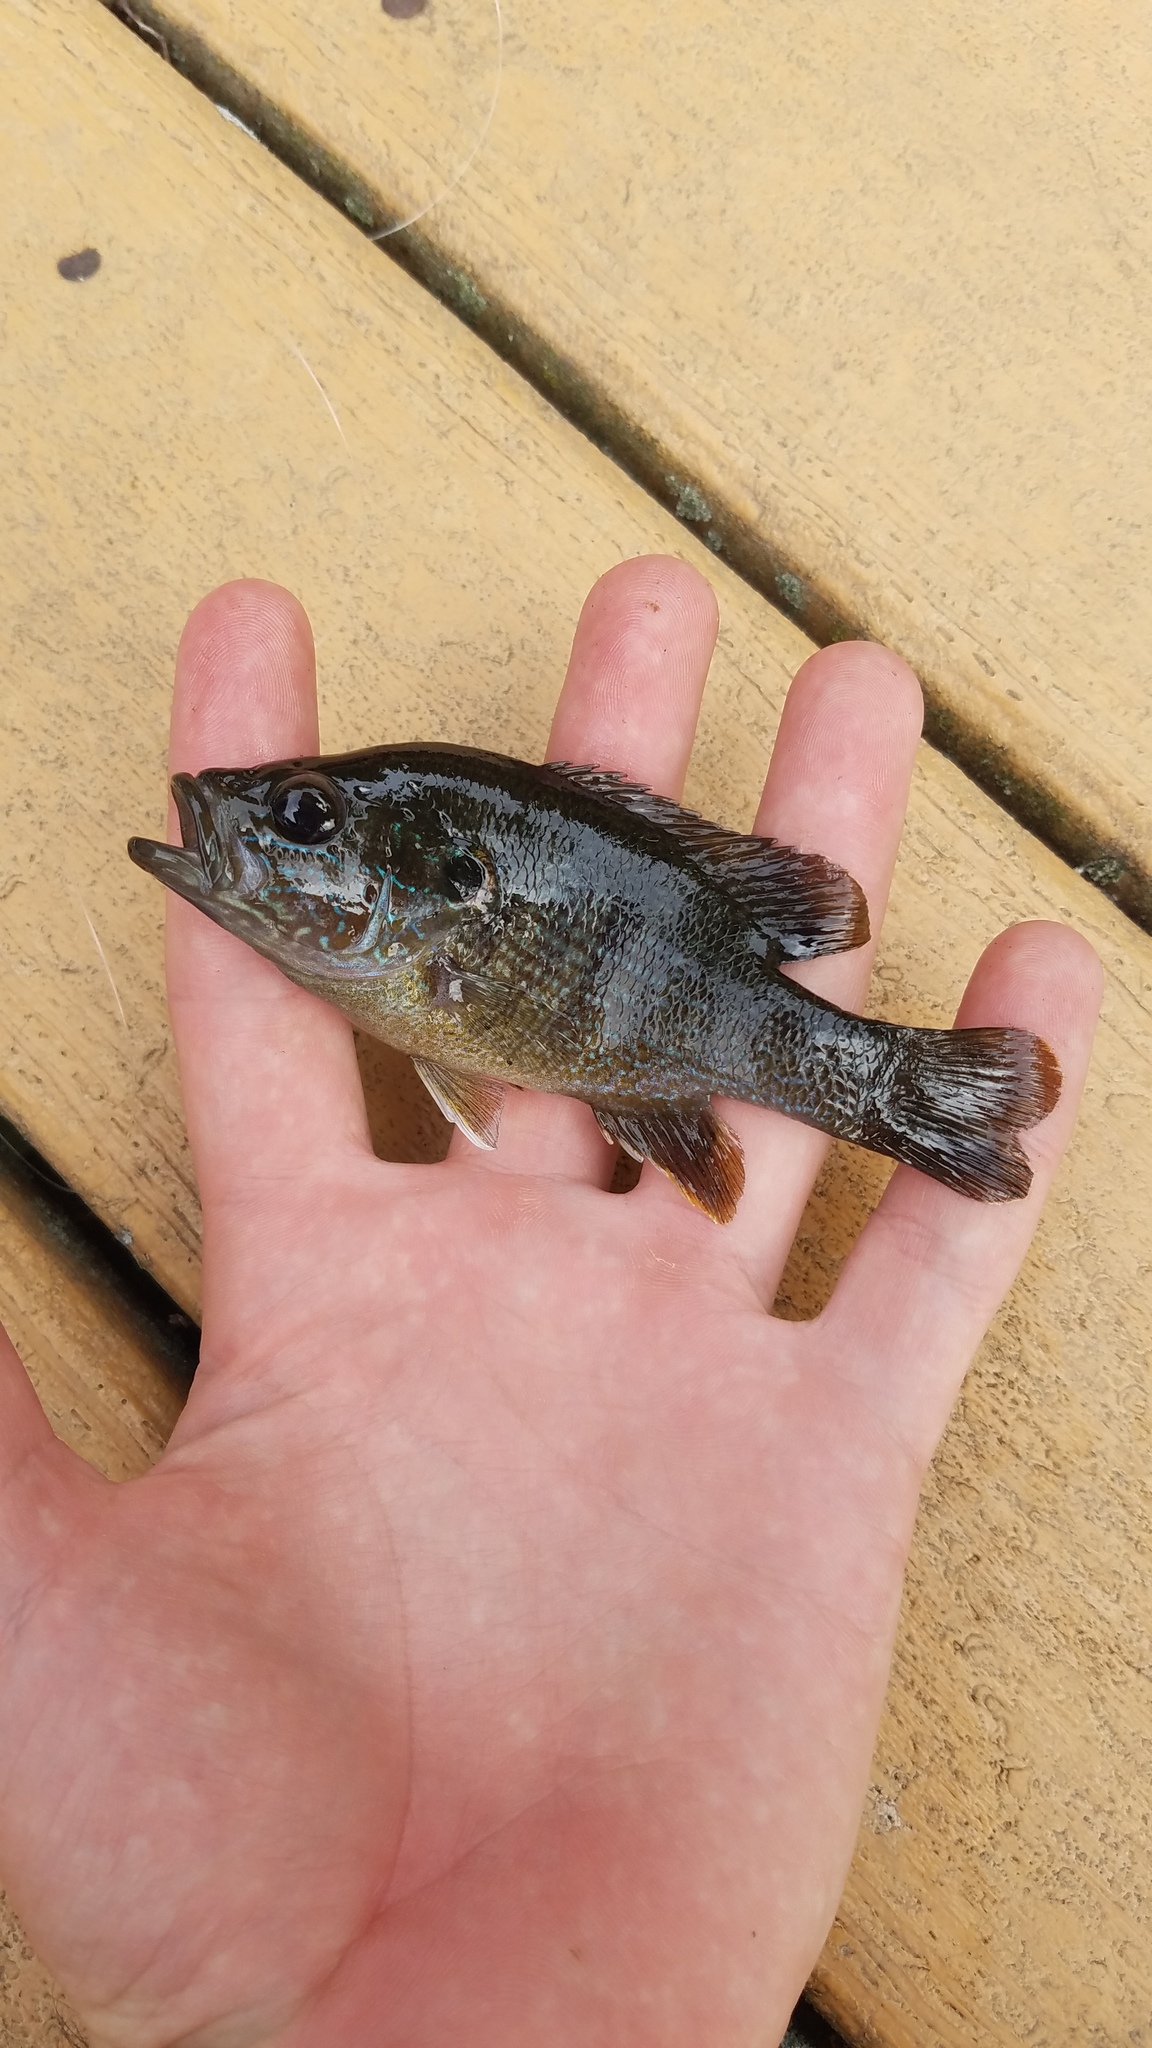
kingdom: Animalia
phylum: Chordata
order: Perciformes
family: Centrarchidae
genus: Lepomis
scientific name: Lepomis cyanellus
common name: Green sunfish
